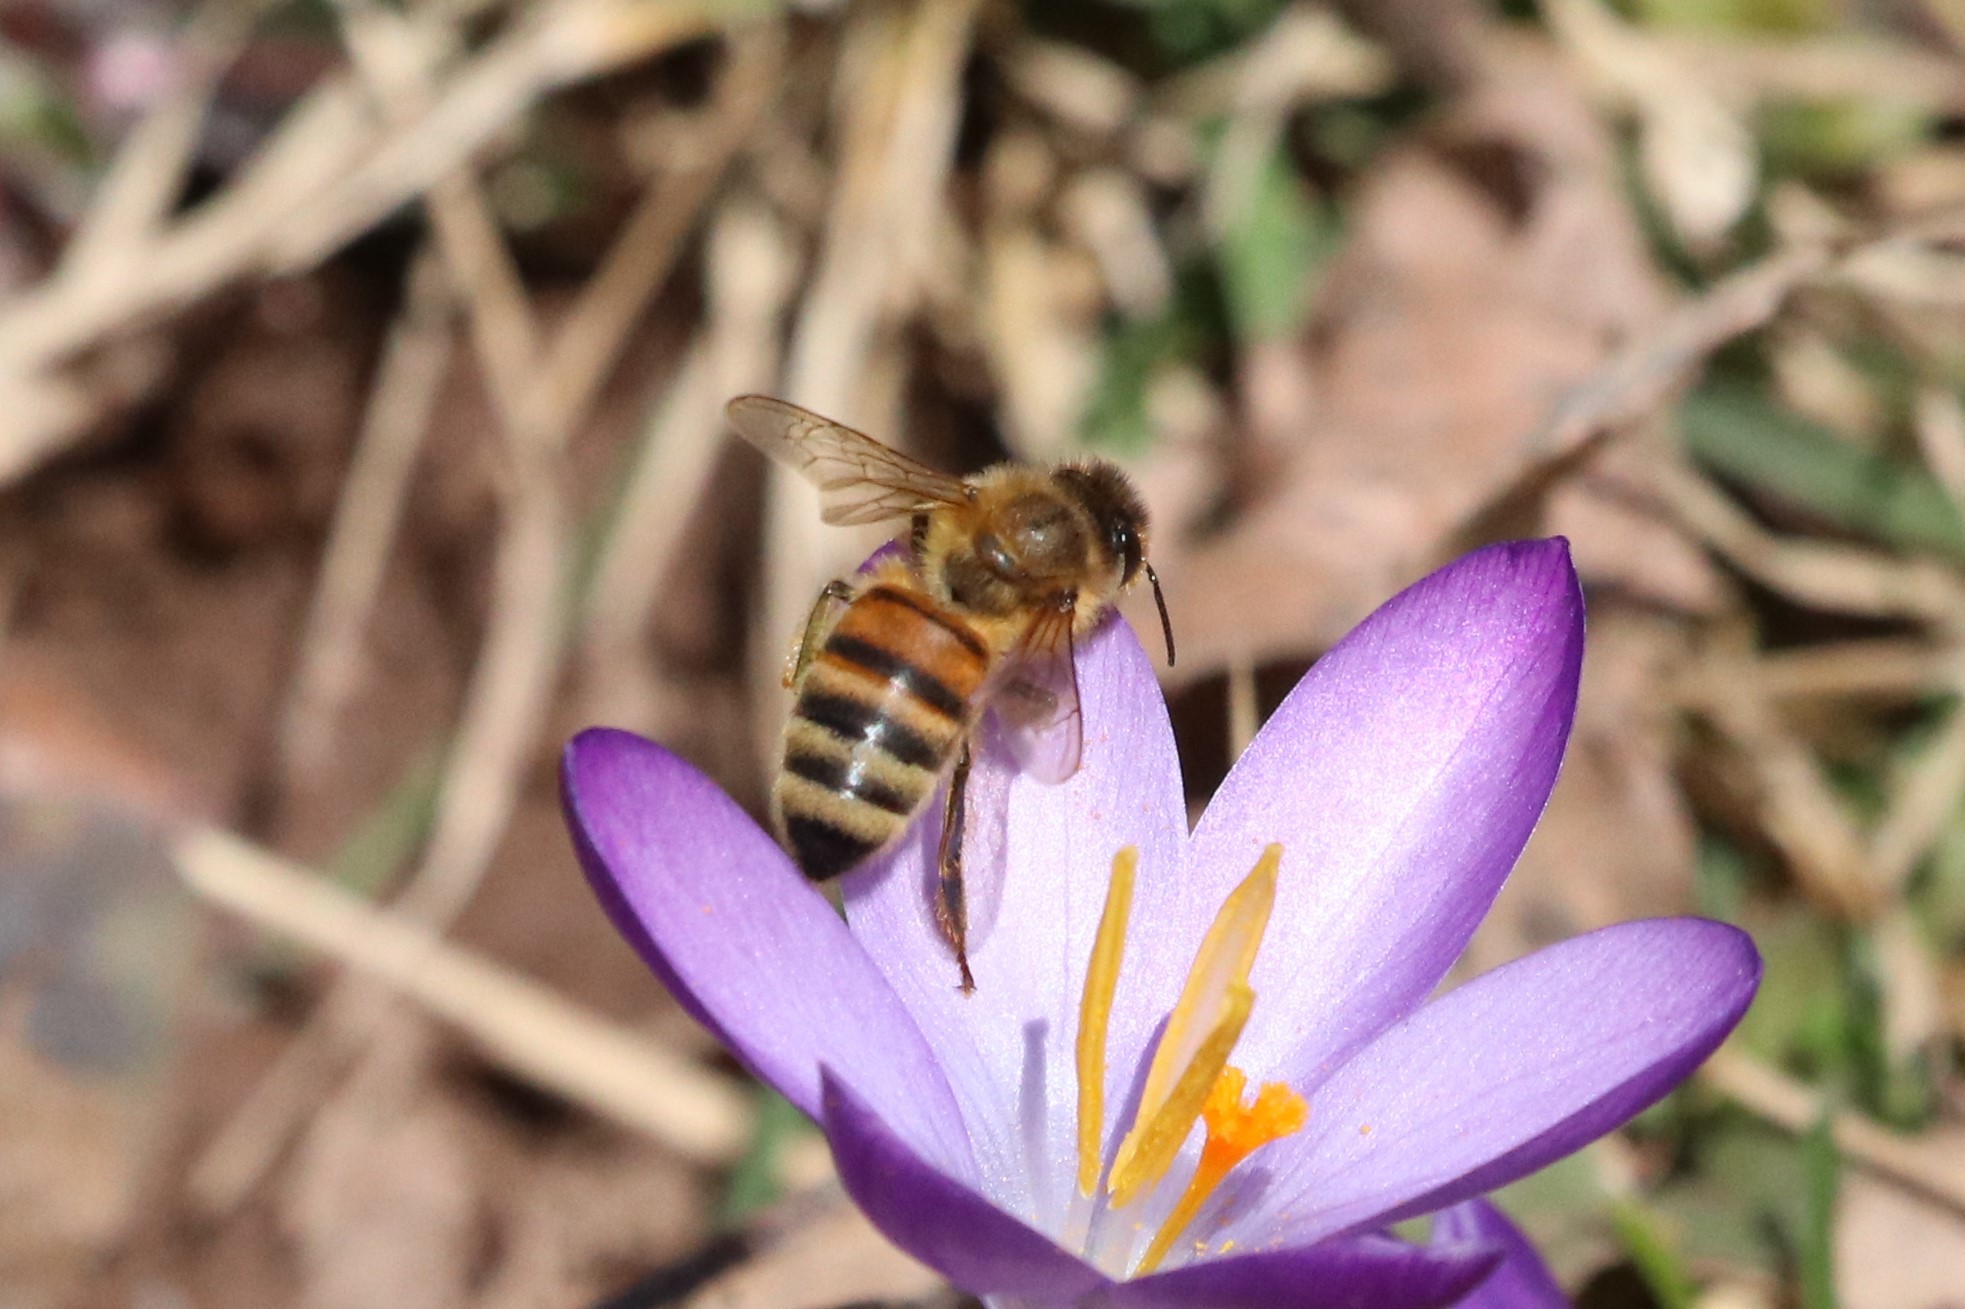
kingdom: Animalia
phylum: Arthropoda
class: Insecta
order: Hymenoptera
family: Apidae
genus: Apis
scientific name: Apis mellifera
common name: Honey bee
